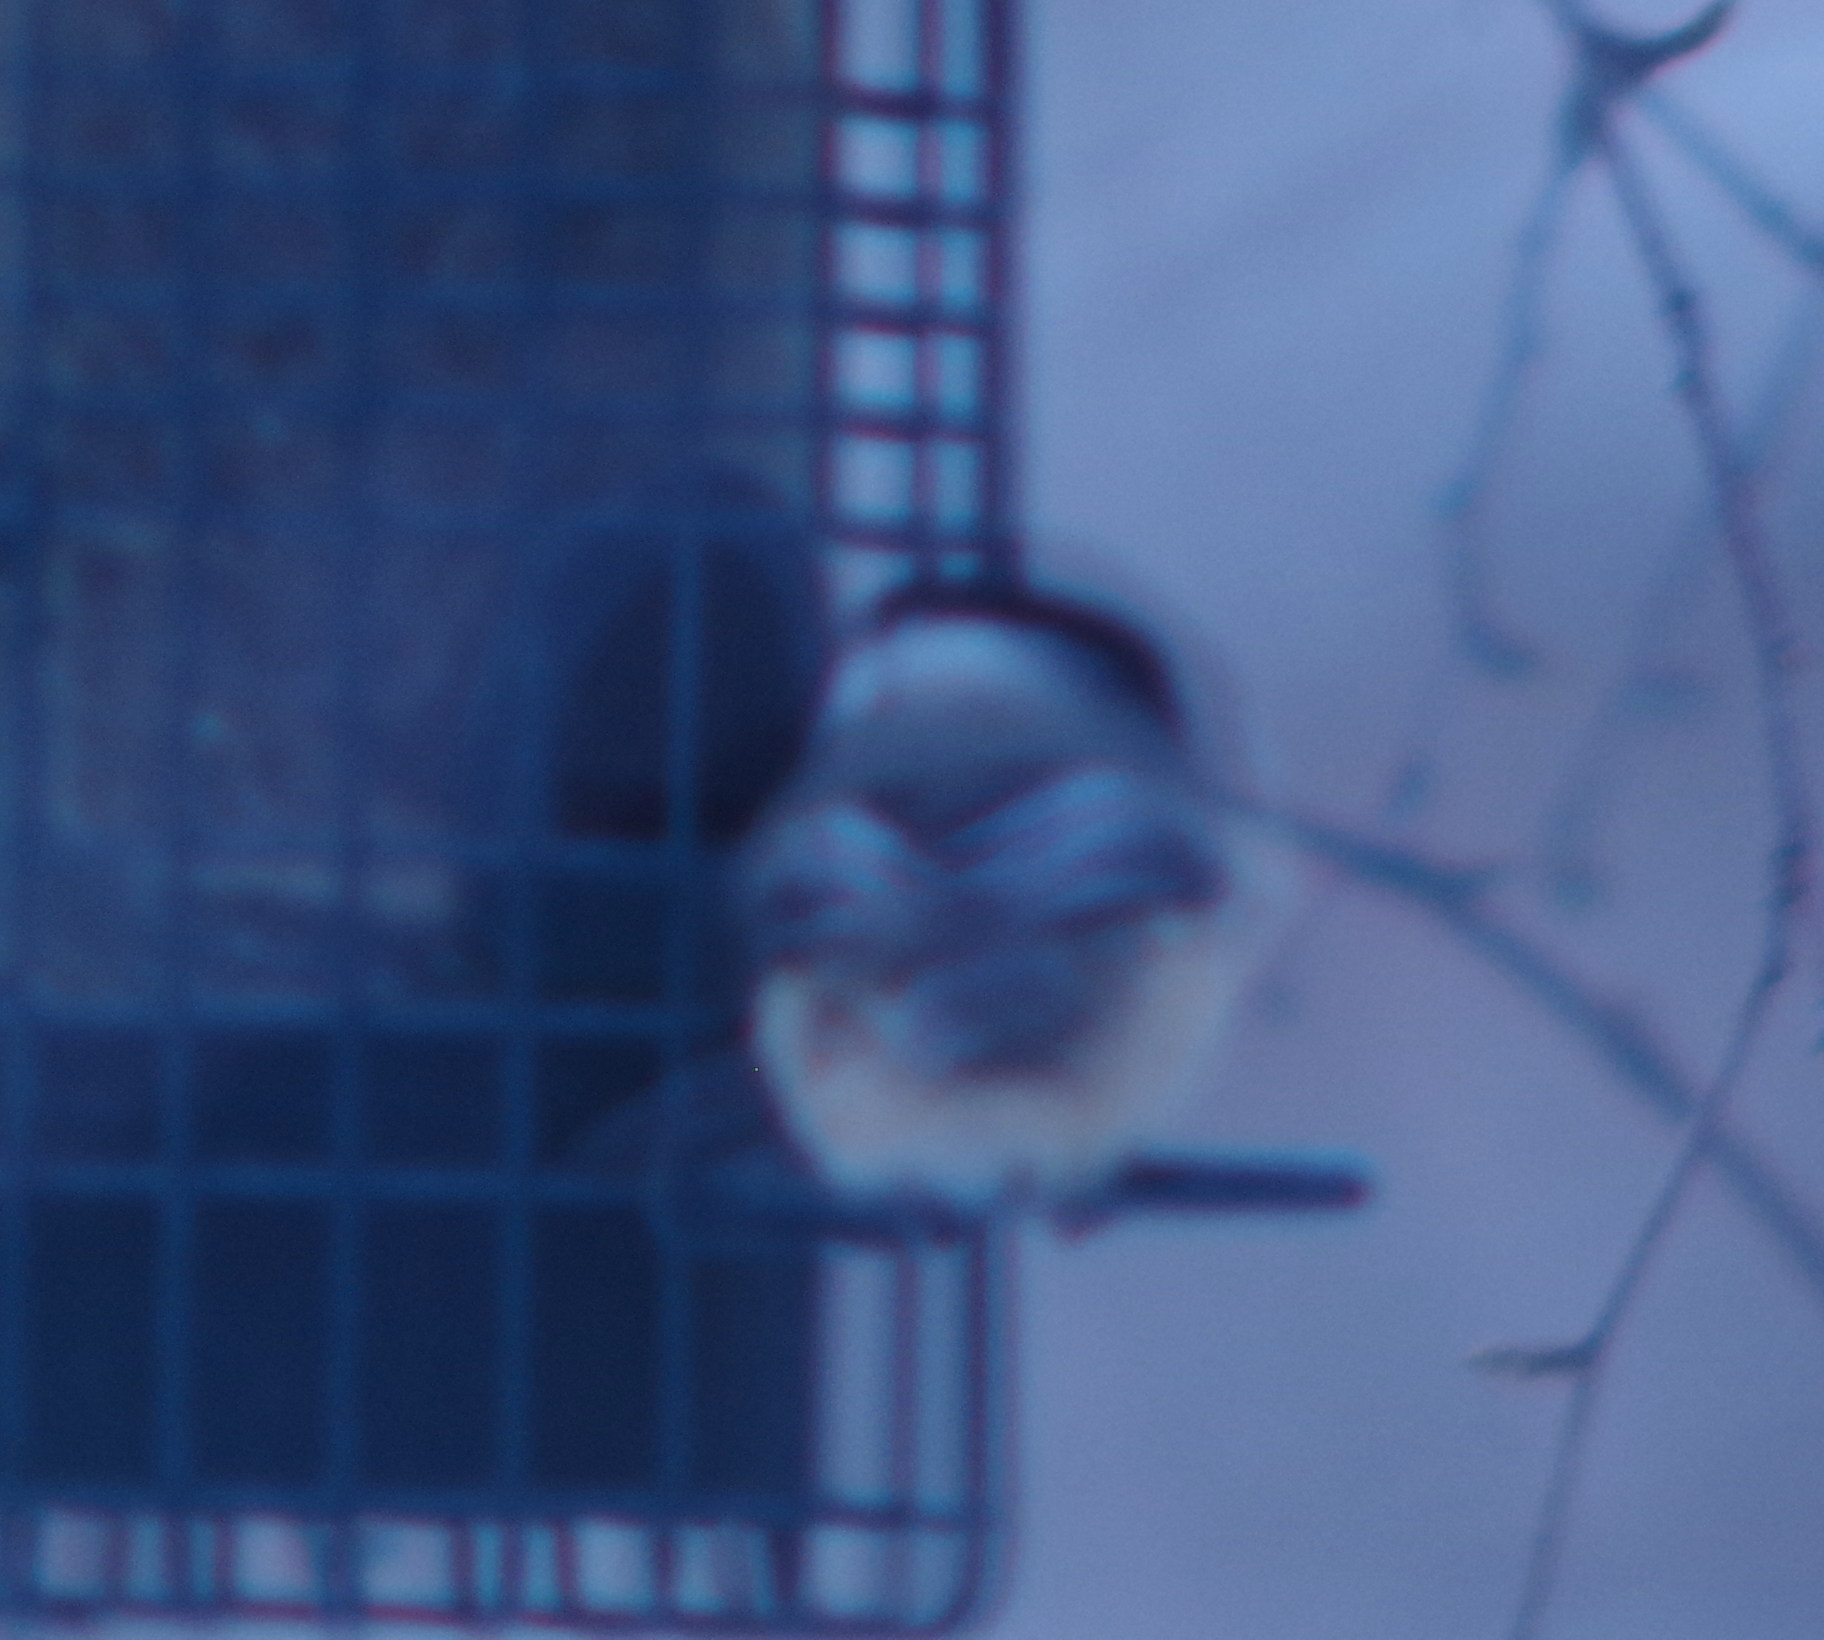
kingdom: Animalia
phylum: Chordata
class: Aves
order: Passeriformes
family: Paridae
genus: Poecile
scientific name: Poecile atricapillus
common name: Black-capped chickadee
